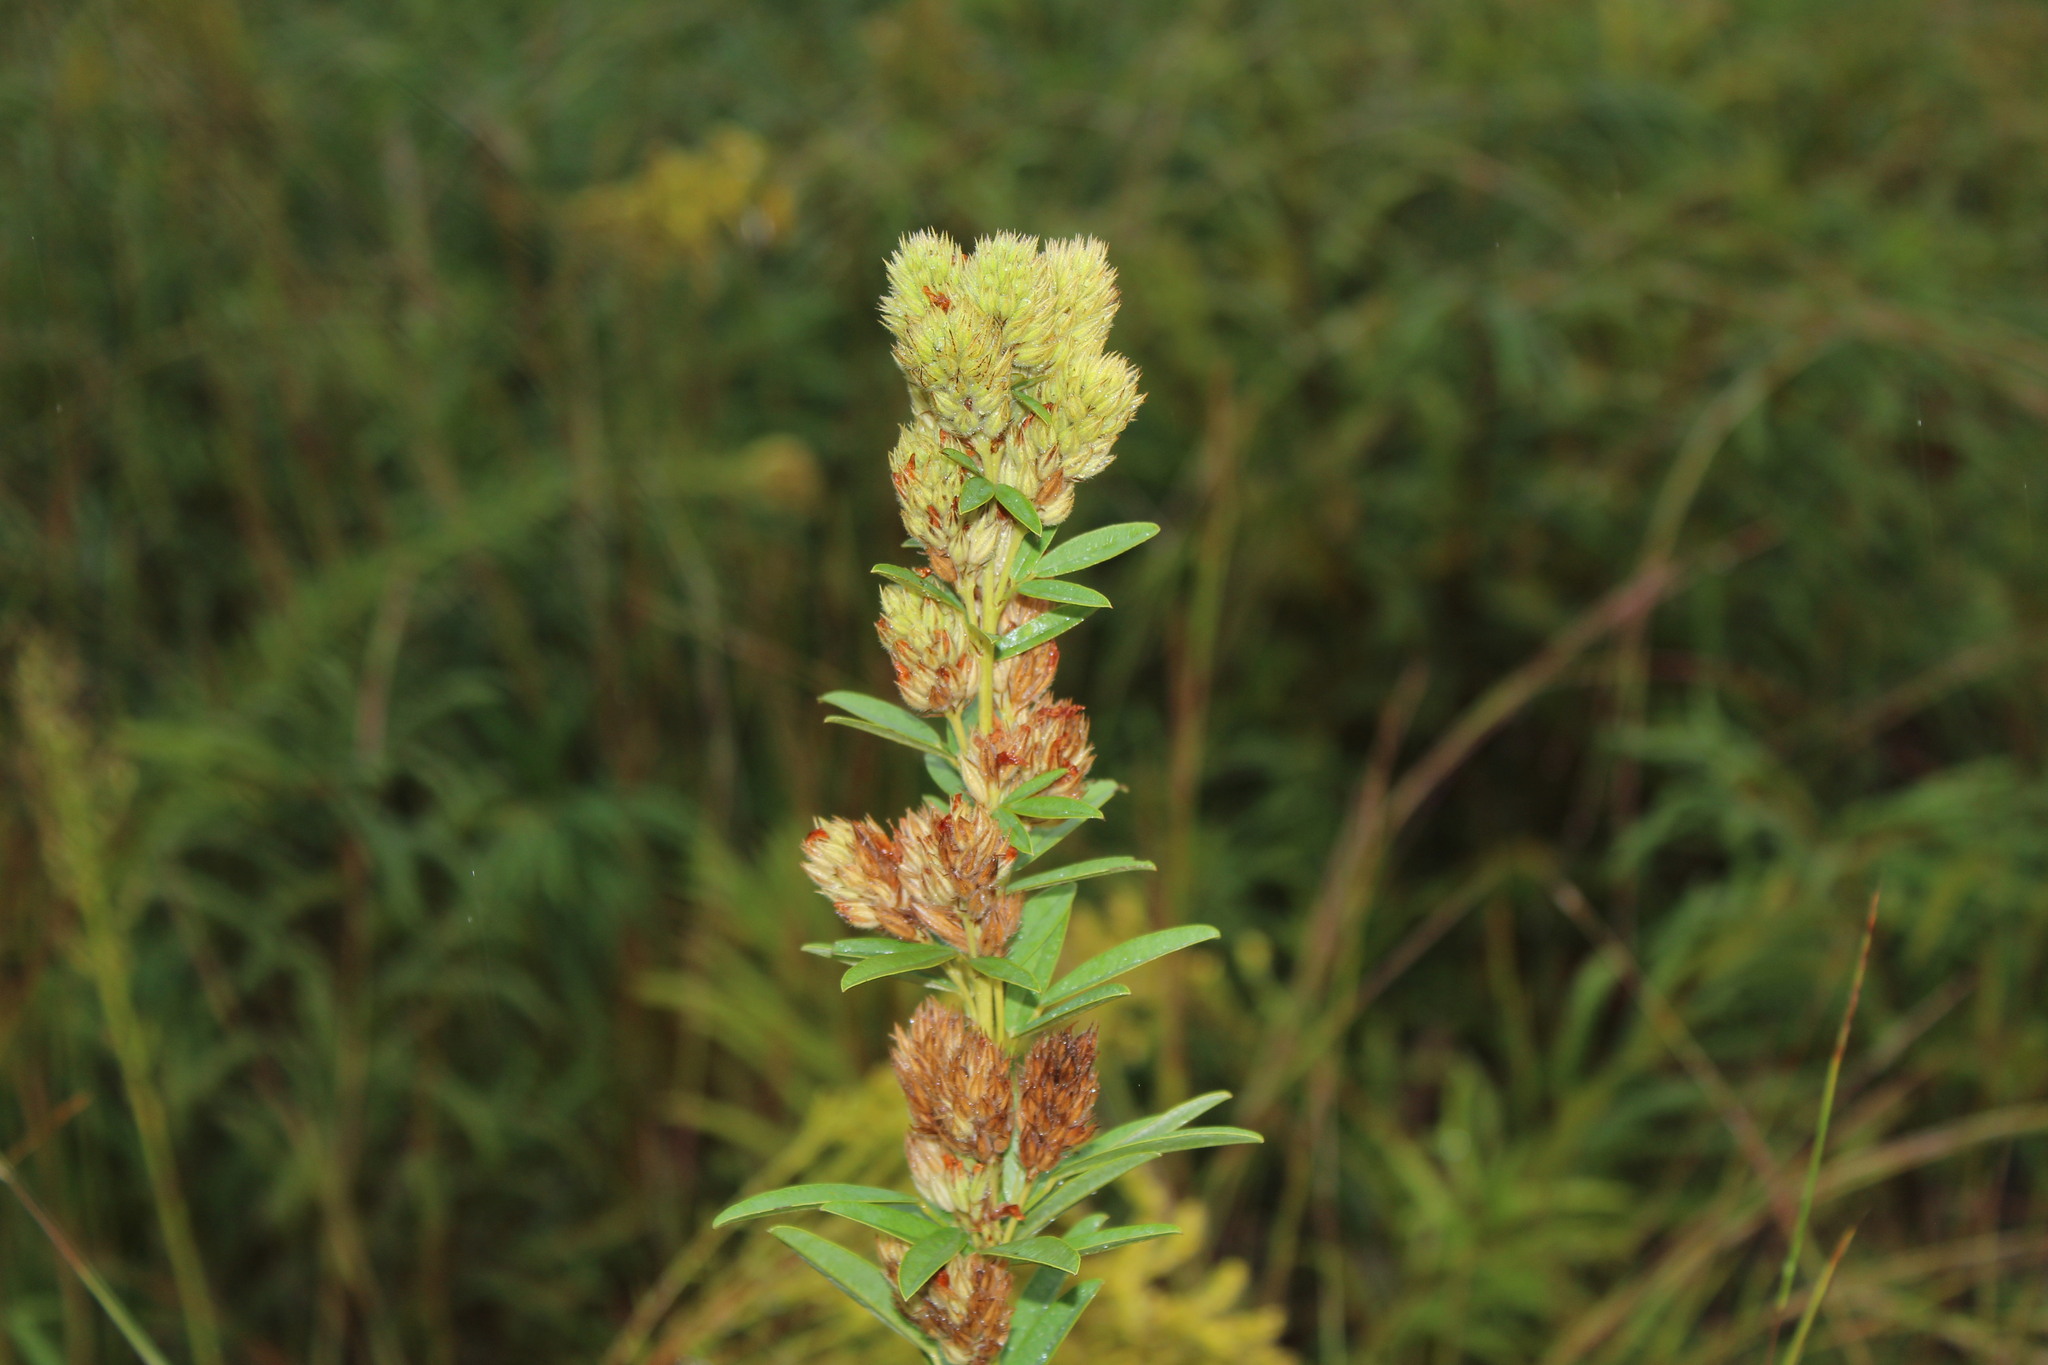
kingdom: Plantae
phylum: Tracheophyta
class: Magnoliopsida
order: Fabales
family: Fabaceae
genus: Lespedeza
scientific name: Lespedeza capitata
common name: Dusty clover
